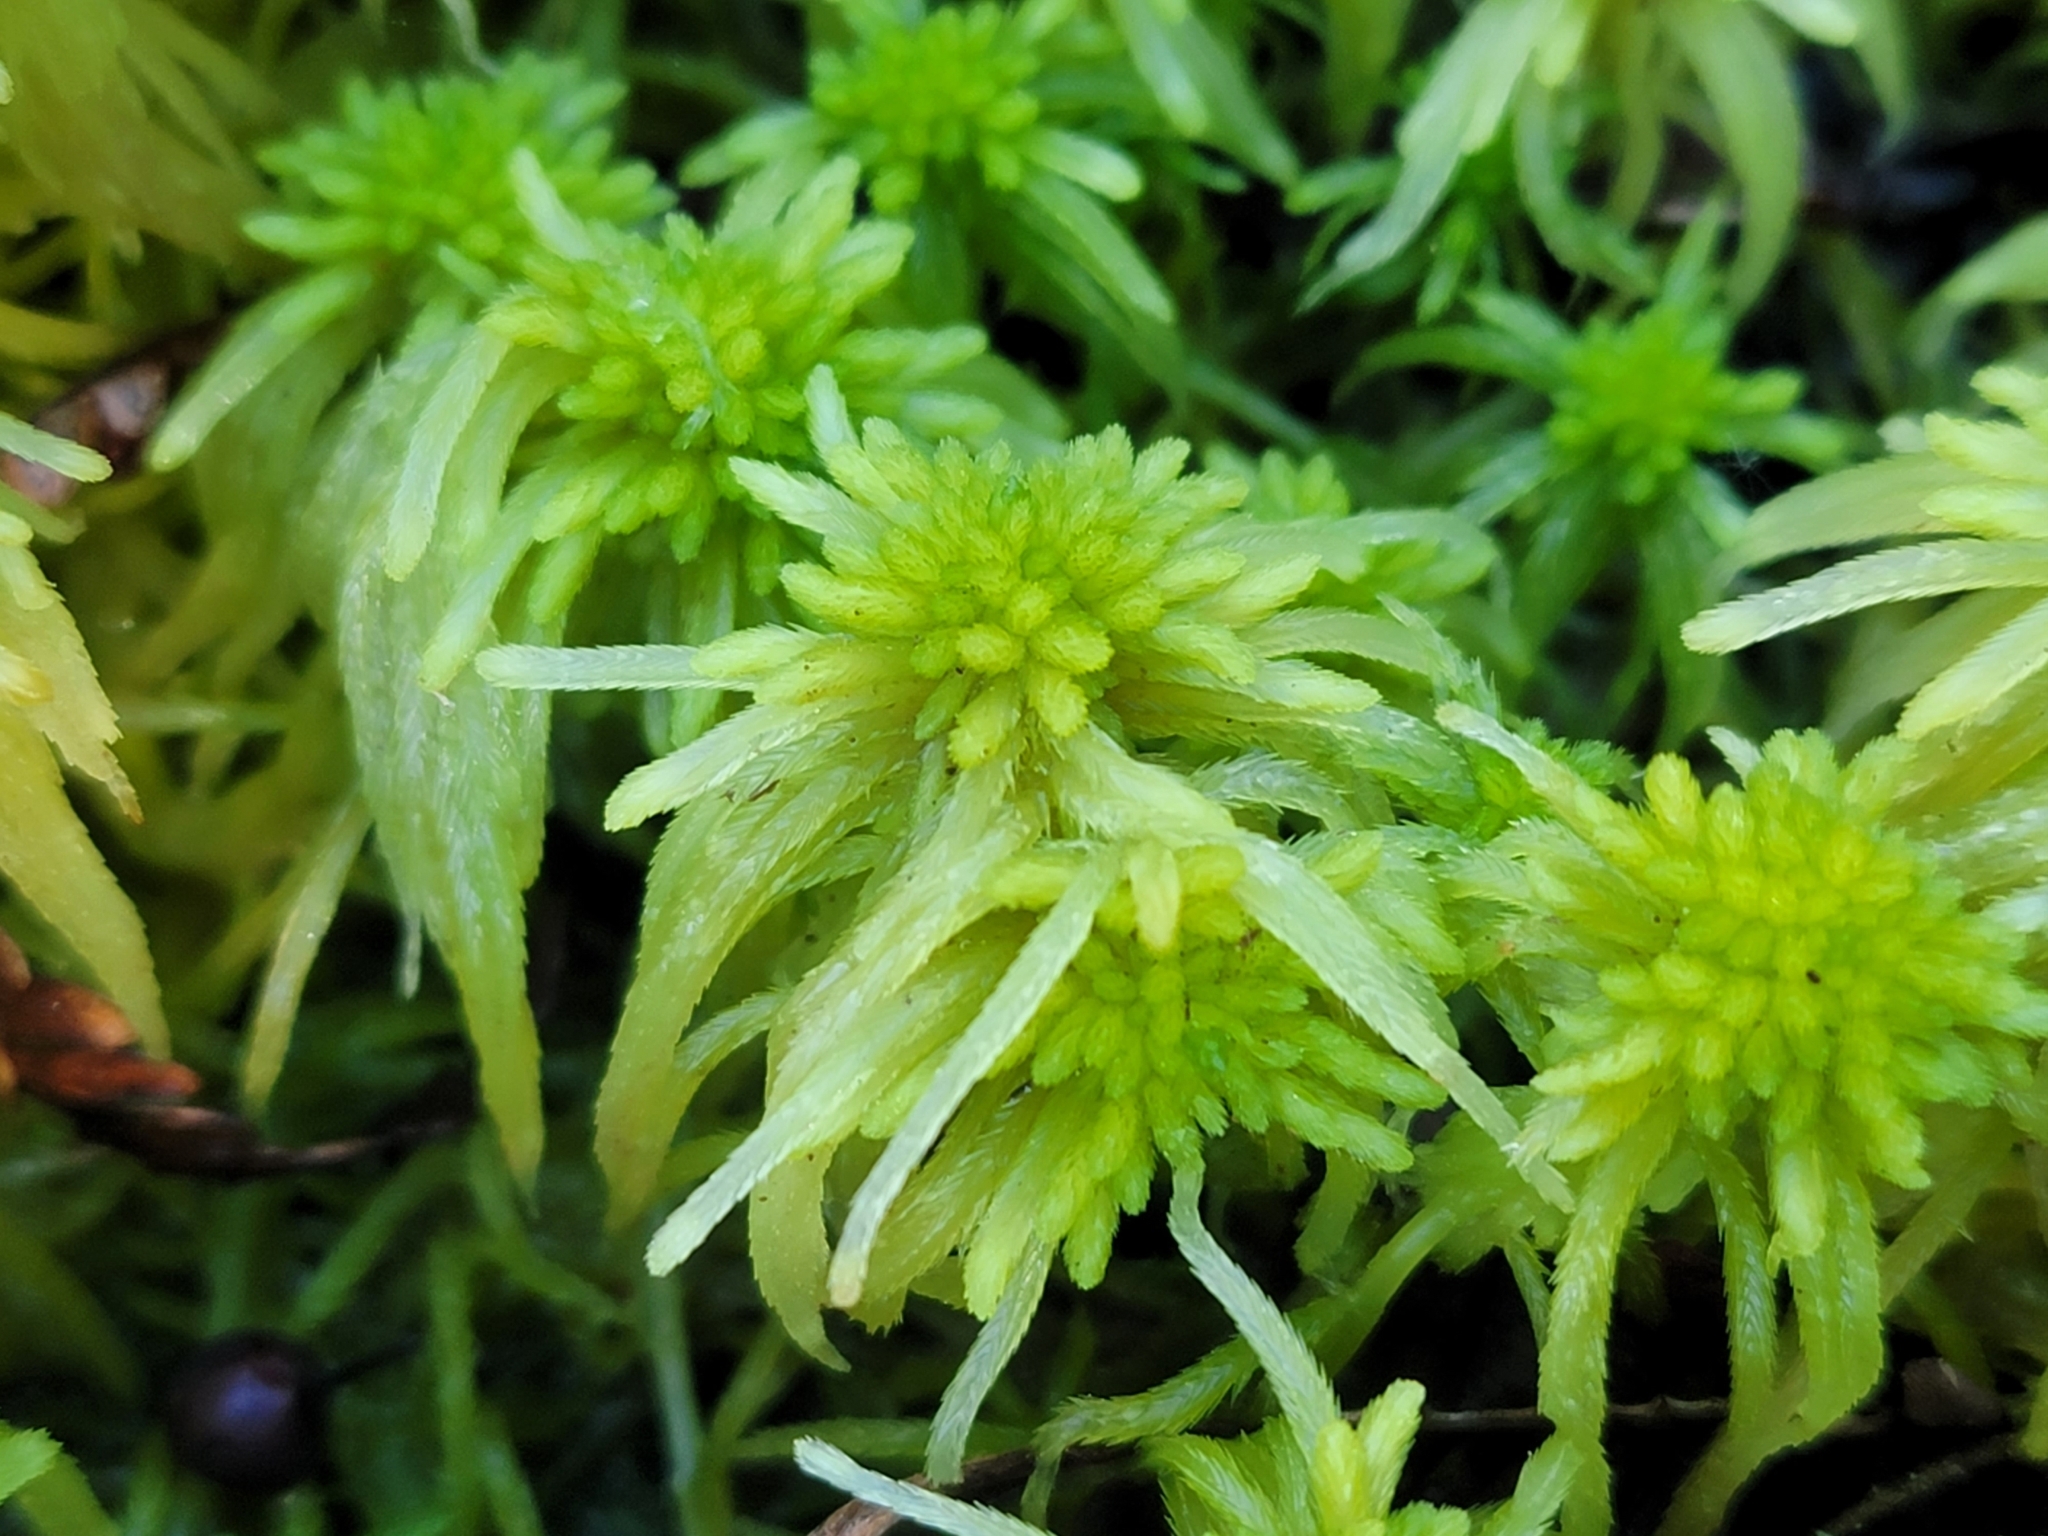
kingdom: Plantae
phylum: Bryophyta
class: Sphagnopsida
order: Sphagnales
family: Sphagnaceae
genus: Sphagnum
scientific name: Sphagnum recurvum
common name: Recurved peatmoss
